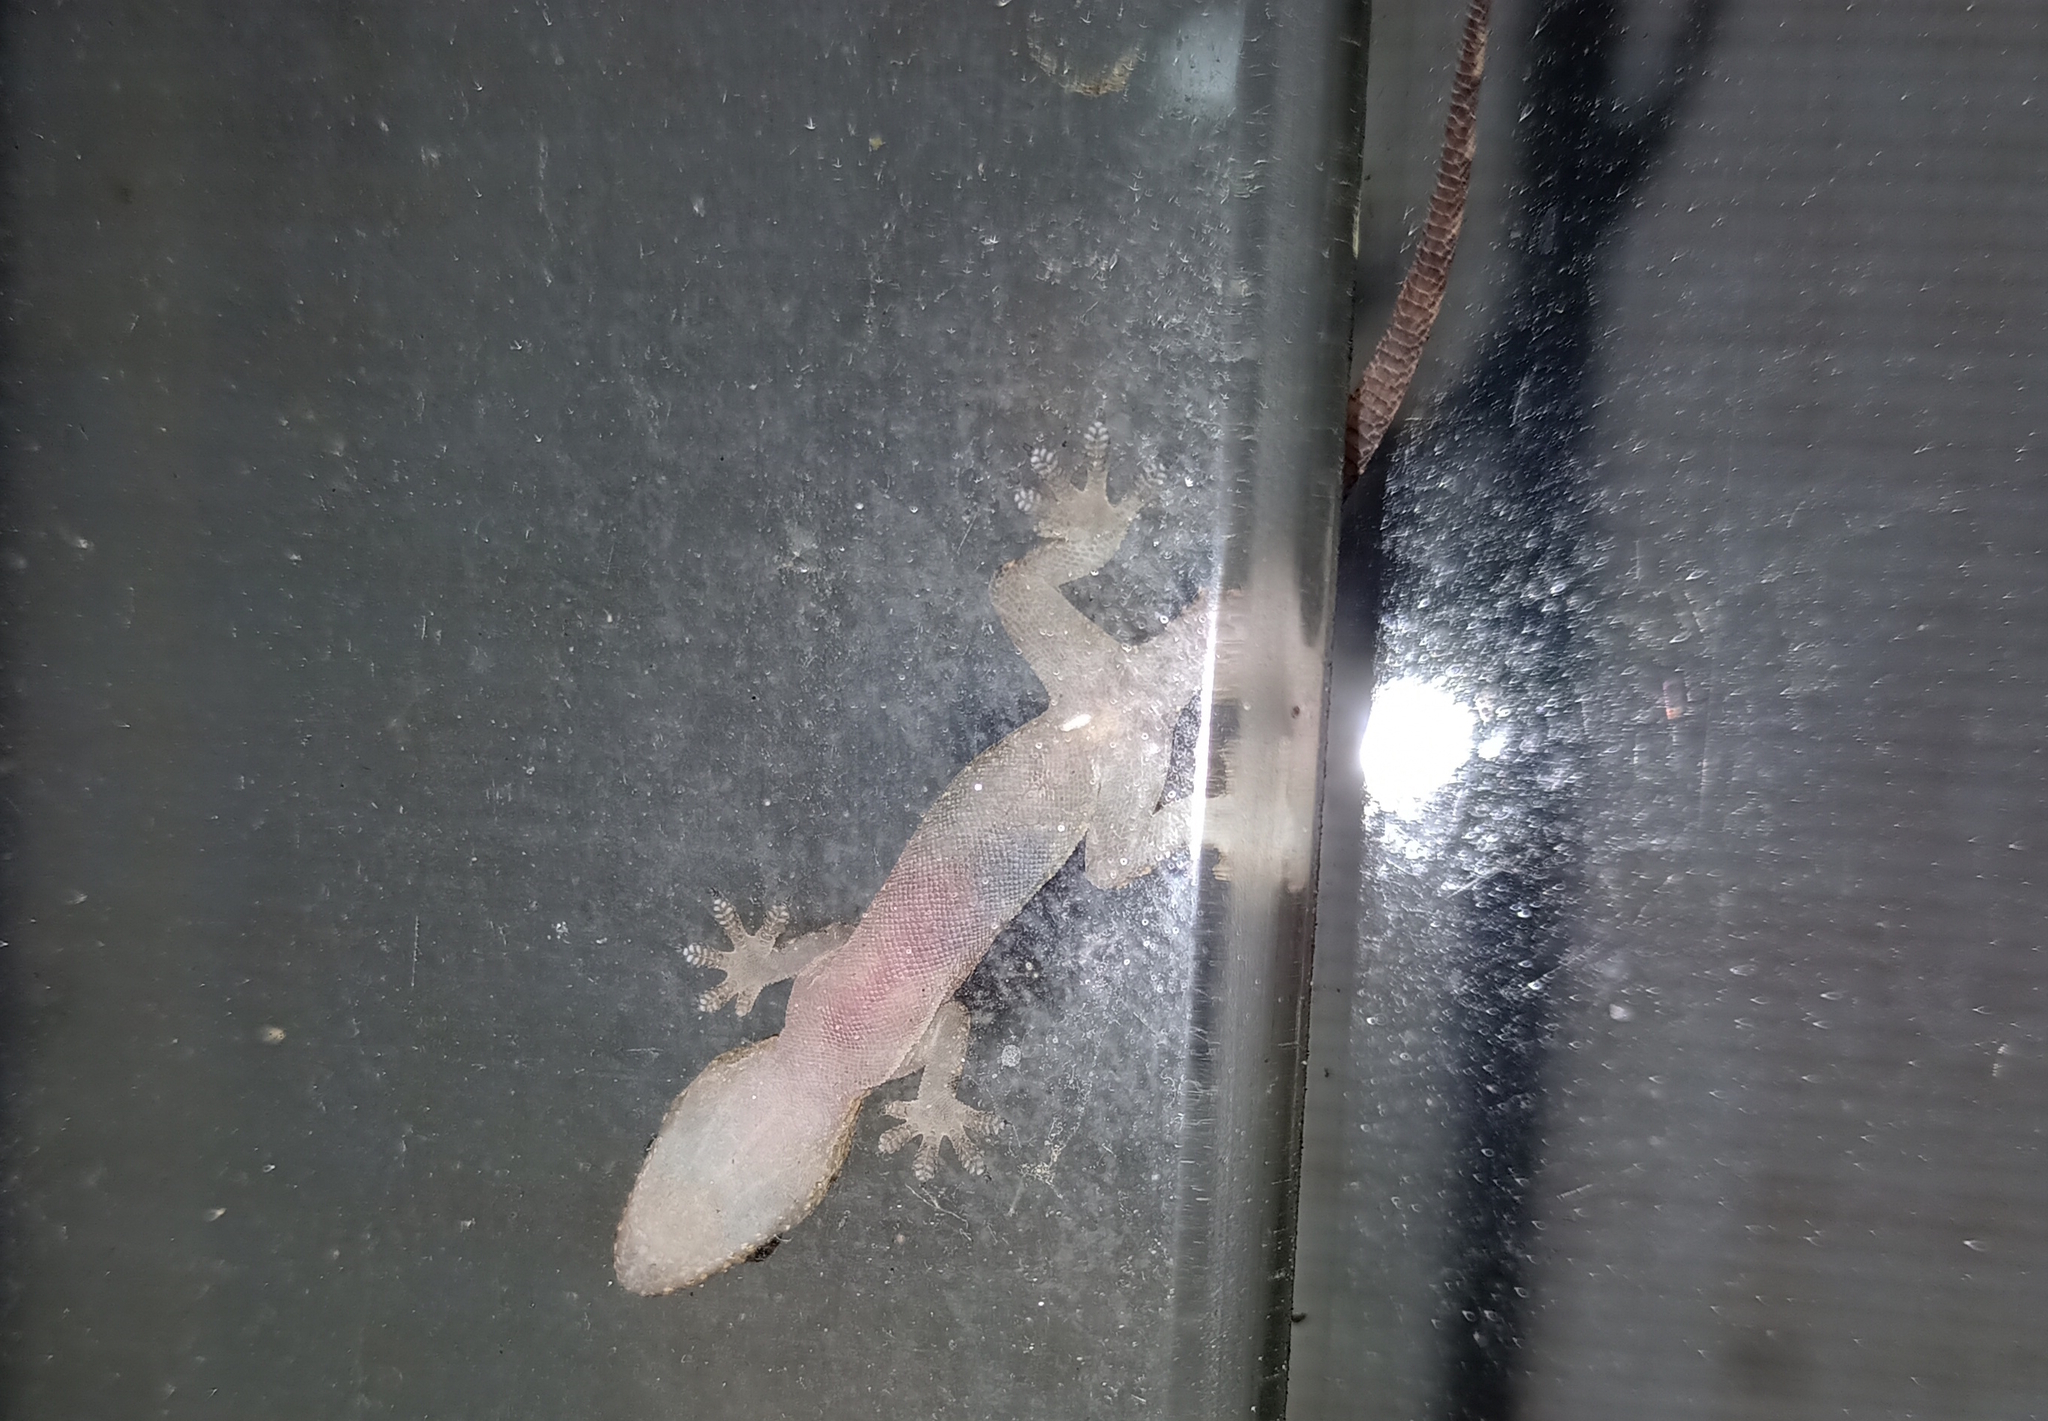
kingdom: Animalia
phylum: Chordata
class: Squamata
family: Gekkonidae
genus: Hemidactylus
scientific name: Hemidactylus mabouia
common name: House gecko
